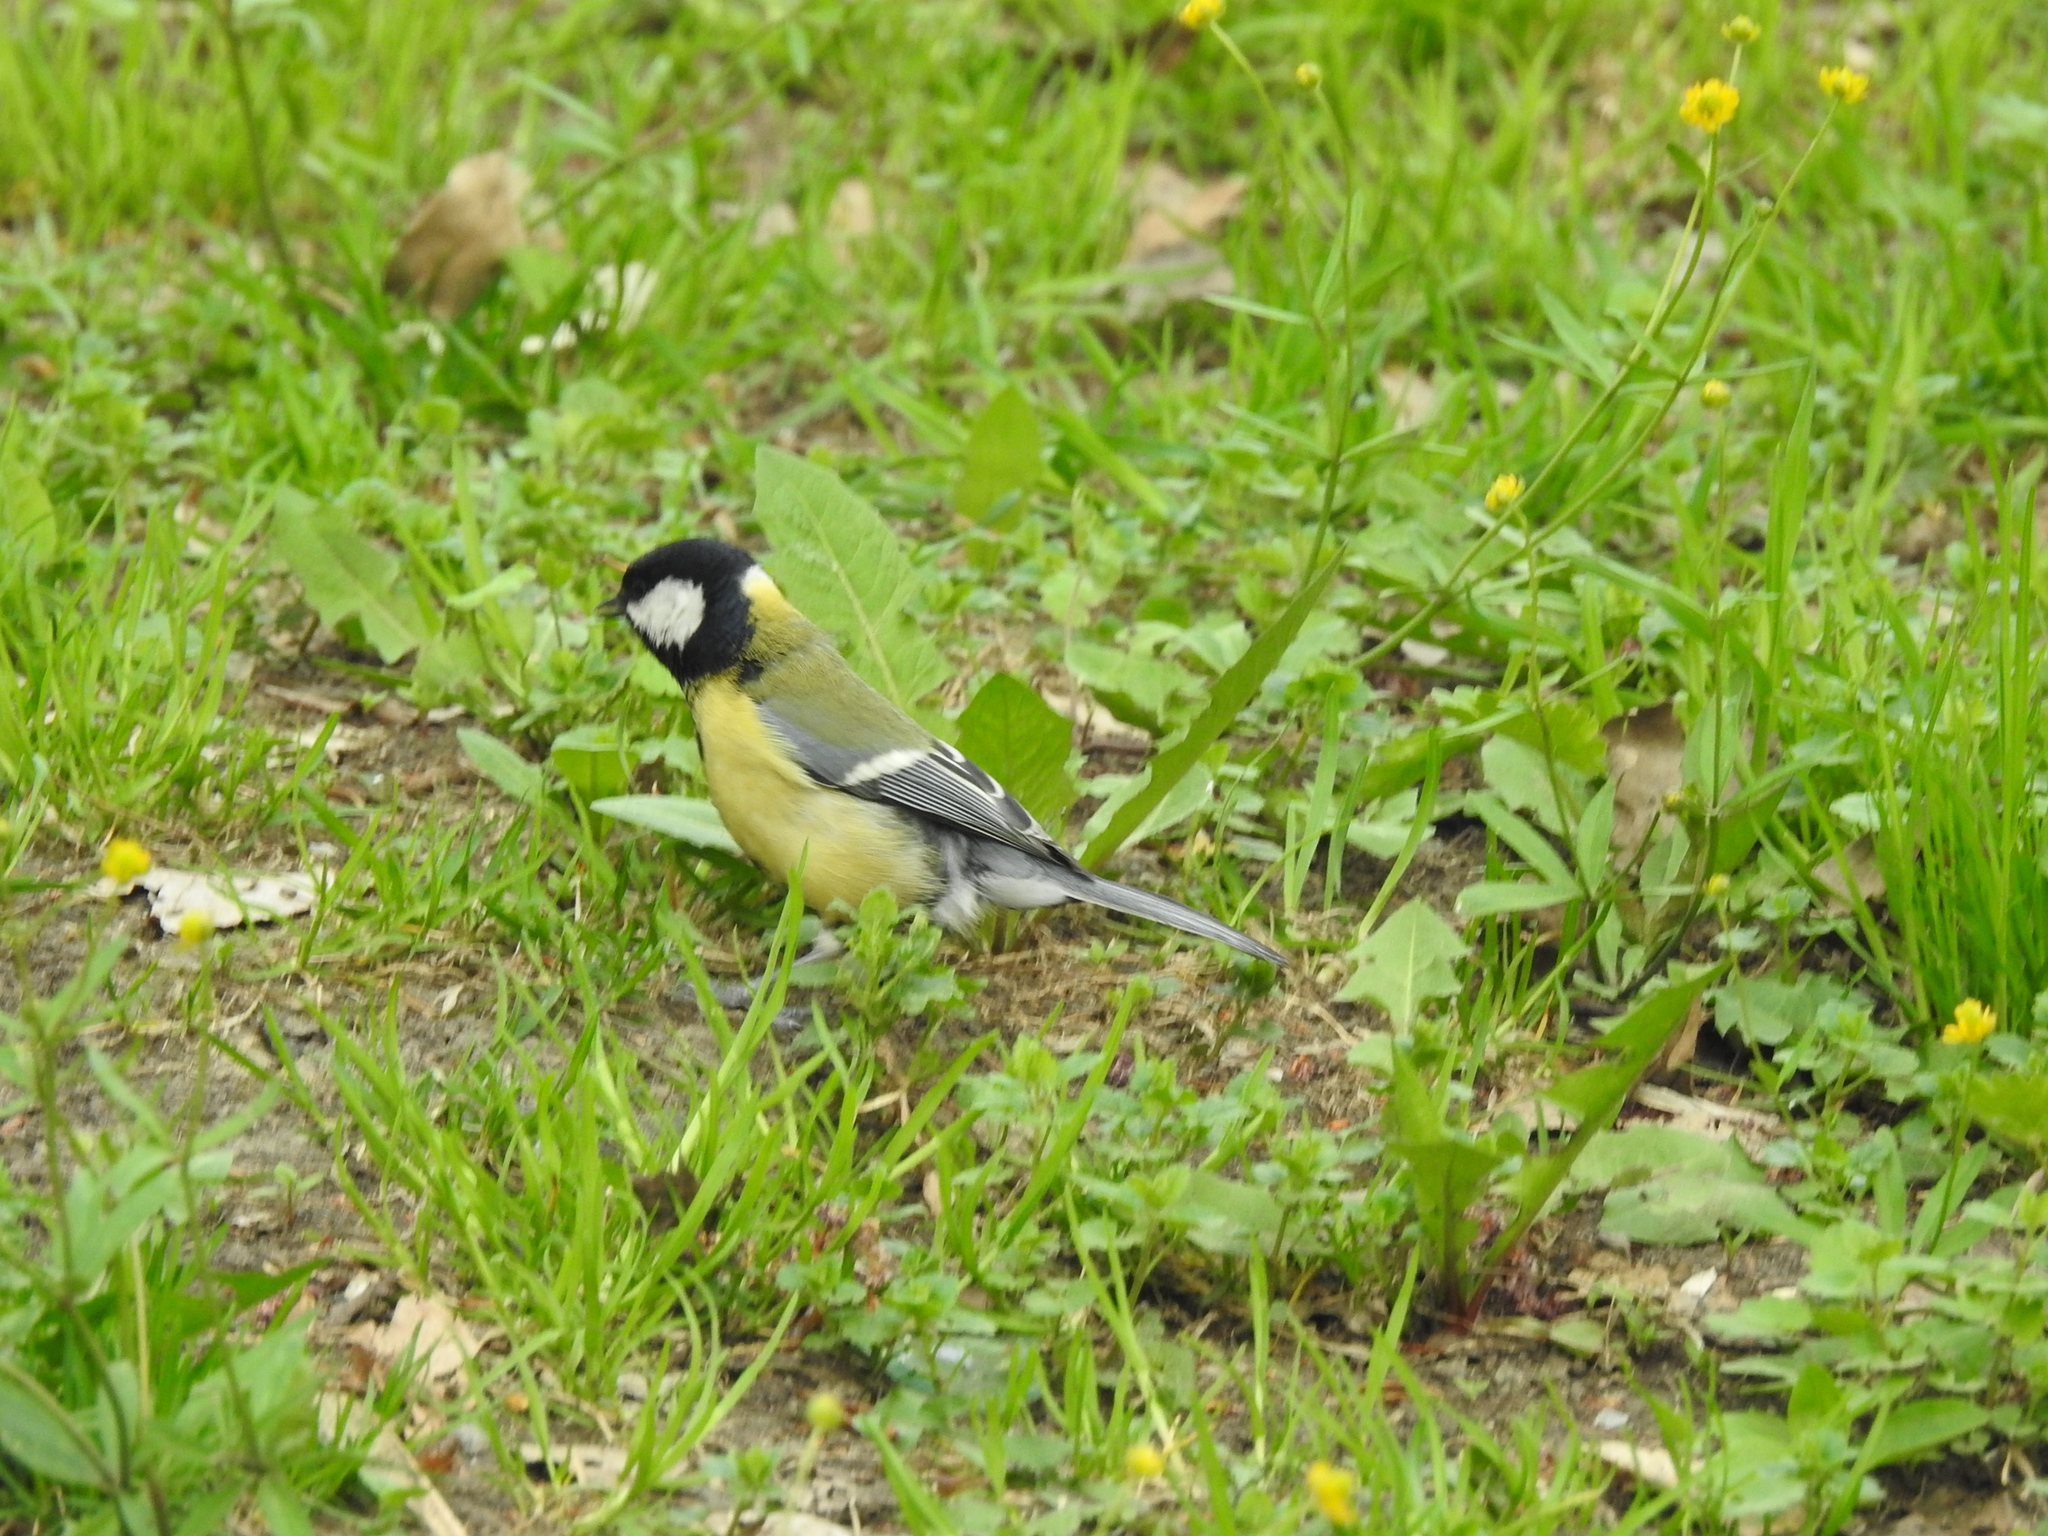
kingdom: Animalia
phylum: Chordata
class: Aves
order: Passeriformes
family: Paridae
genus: Parus
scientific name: Parus major
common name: Great tit
